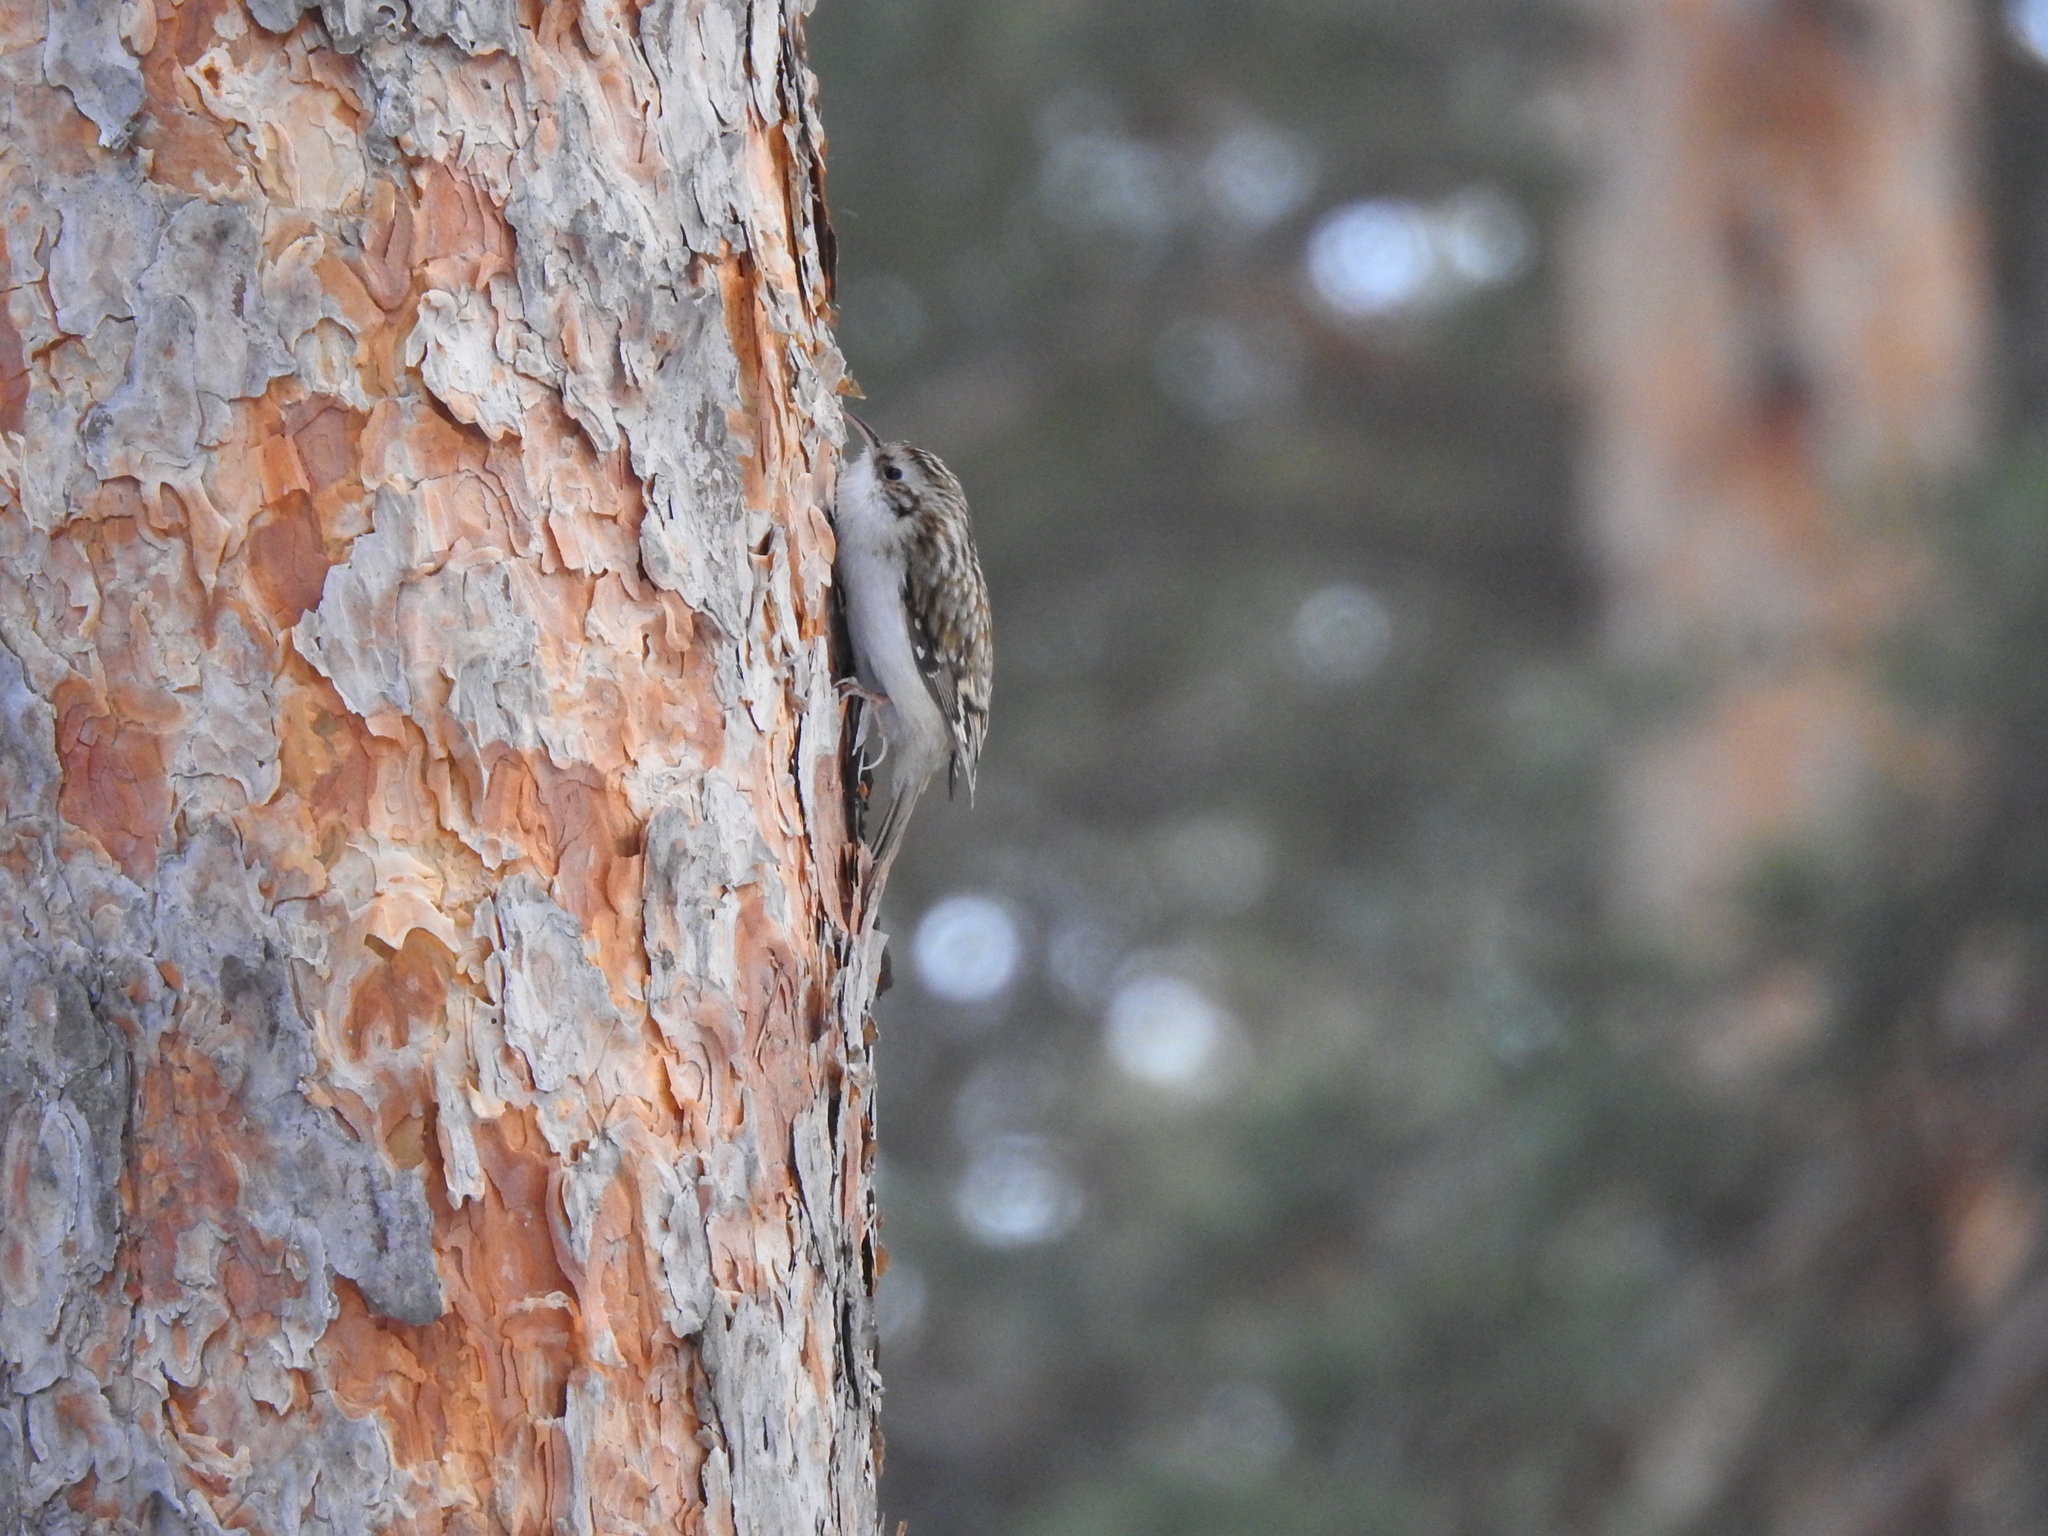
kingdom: Animalia
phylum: Chordata
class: Aves
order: Passeriformes
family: Certhiidae
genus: Certhia
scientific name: Certhia familiaris
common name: Eurasian treecreeper
